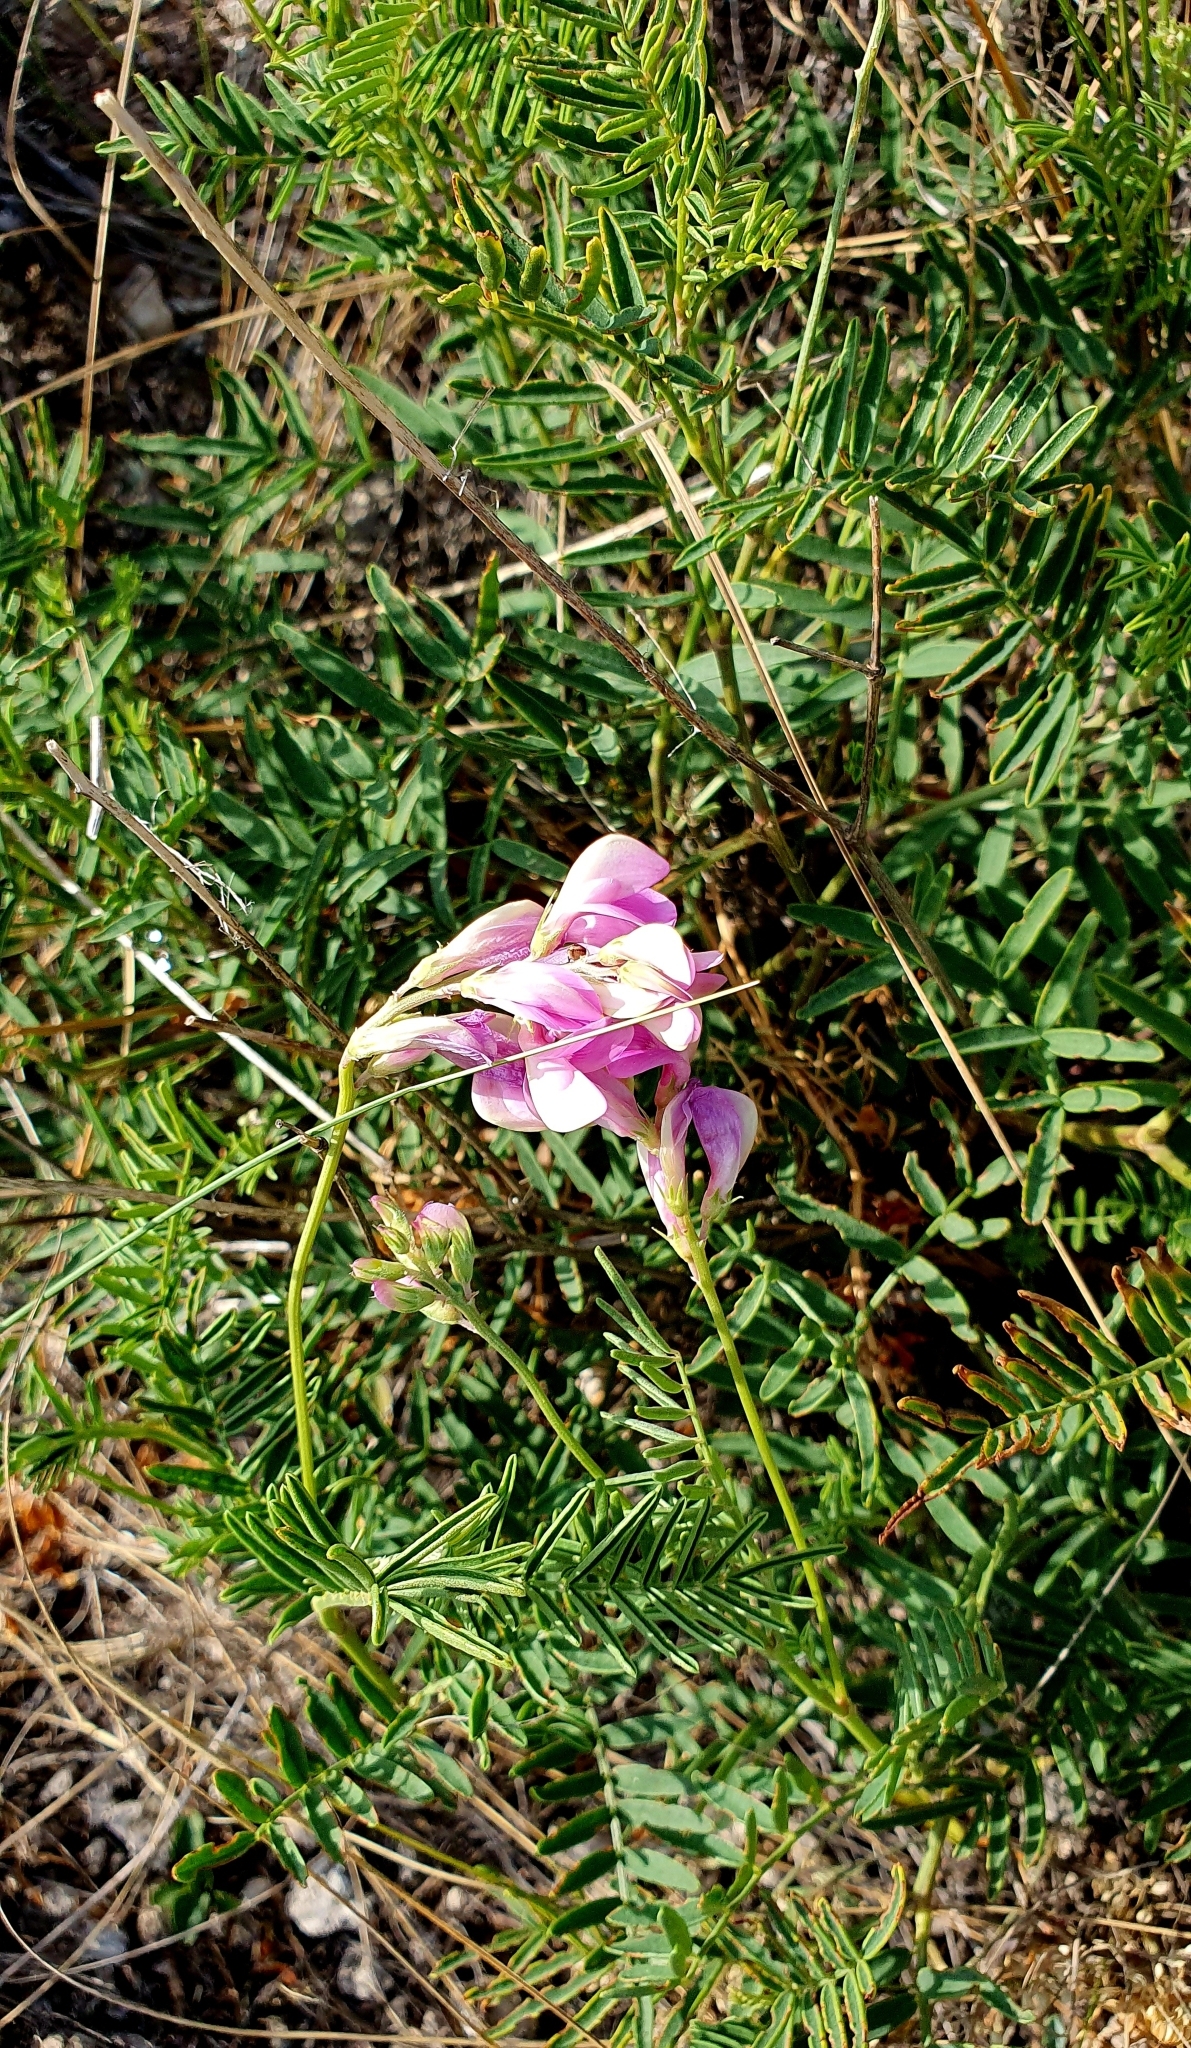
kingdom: Plantae
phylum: Tracheophyta
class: Magnoliopsida
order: Fabales
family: Fabaceae
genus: Hedysarum
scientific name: Hedysarum razoumovianum
